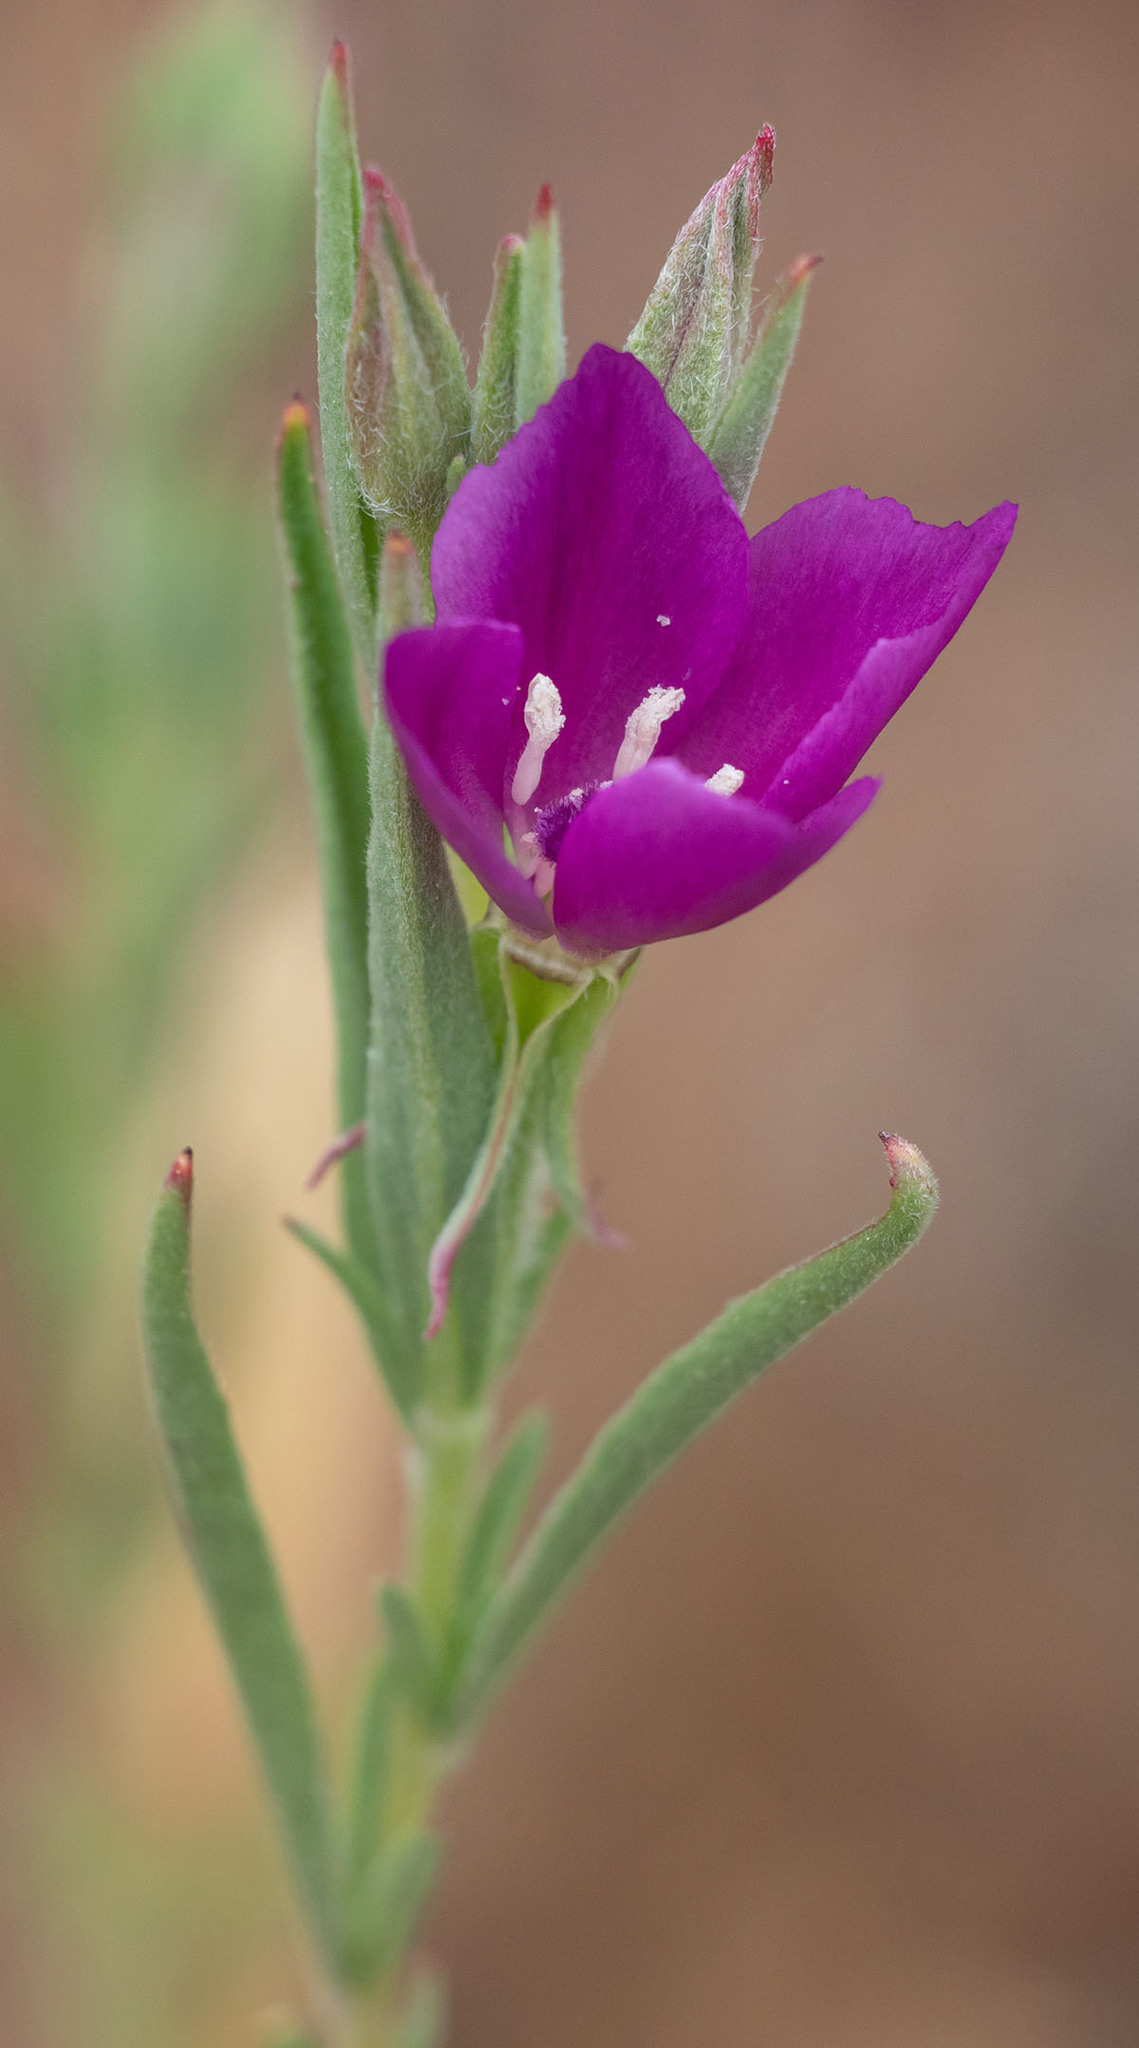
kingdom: Plantae
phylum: Tracheophyta
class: Magnoliopsida
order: Myrtales
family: Onagraceae
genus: Clarkia
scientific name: Clarkia purpurea
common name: Purple clarkia
